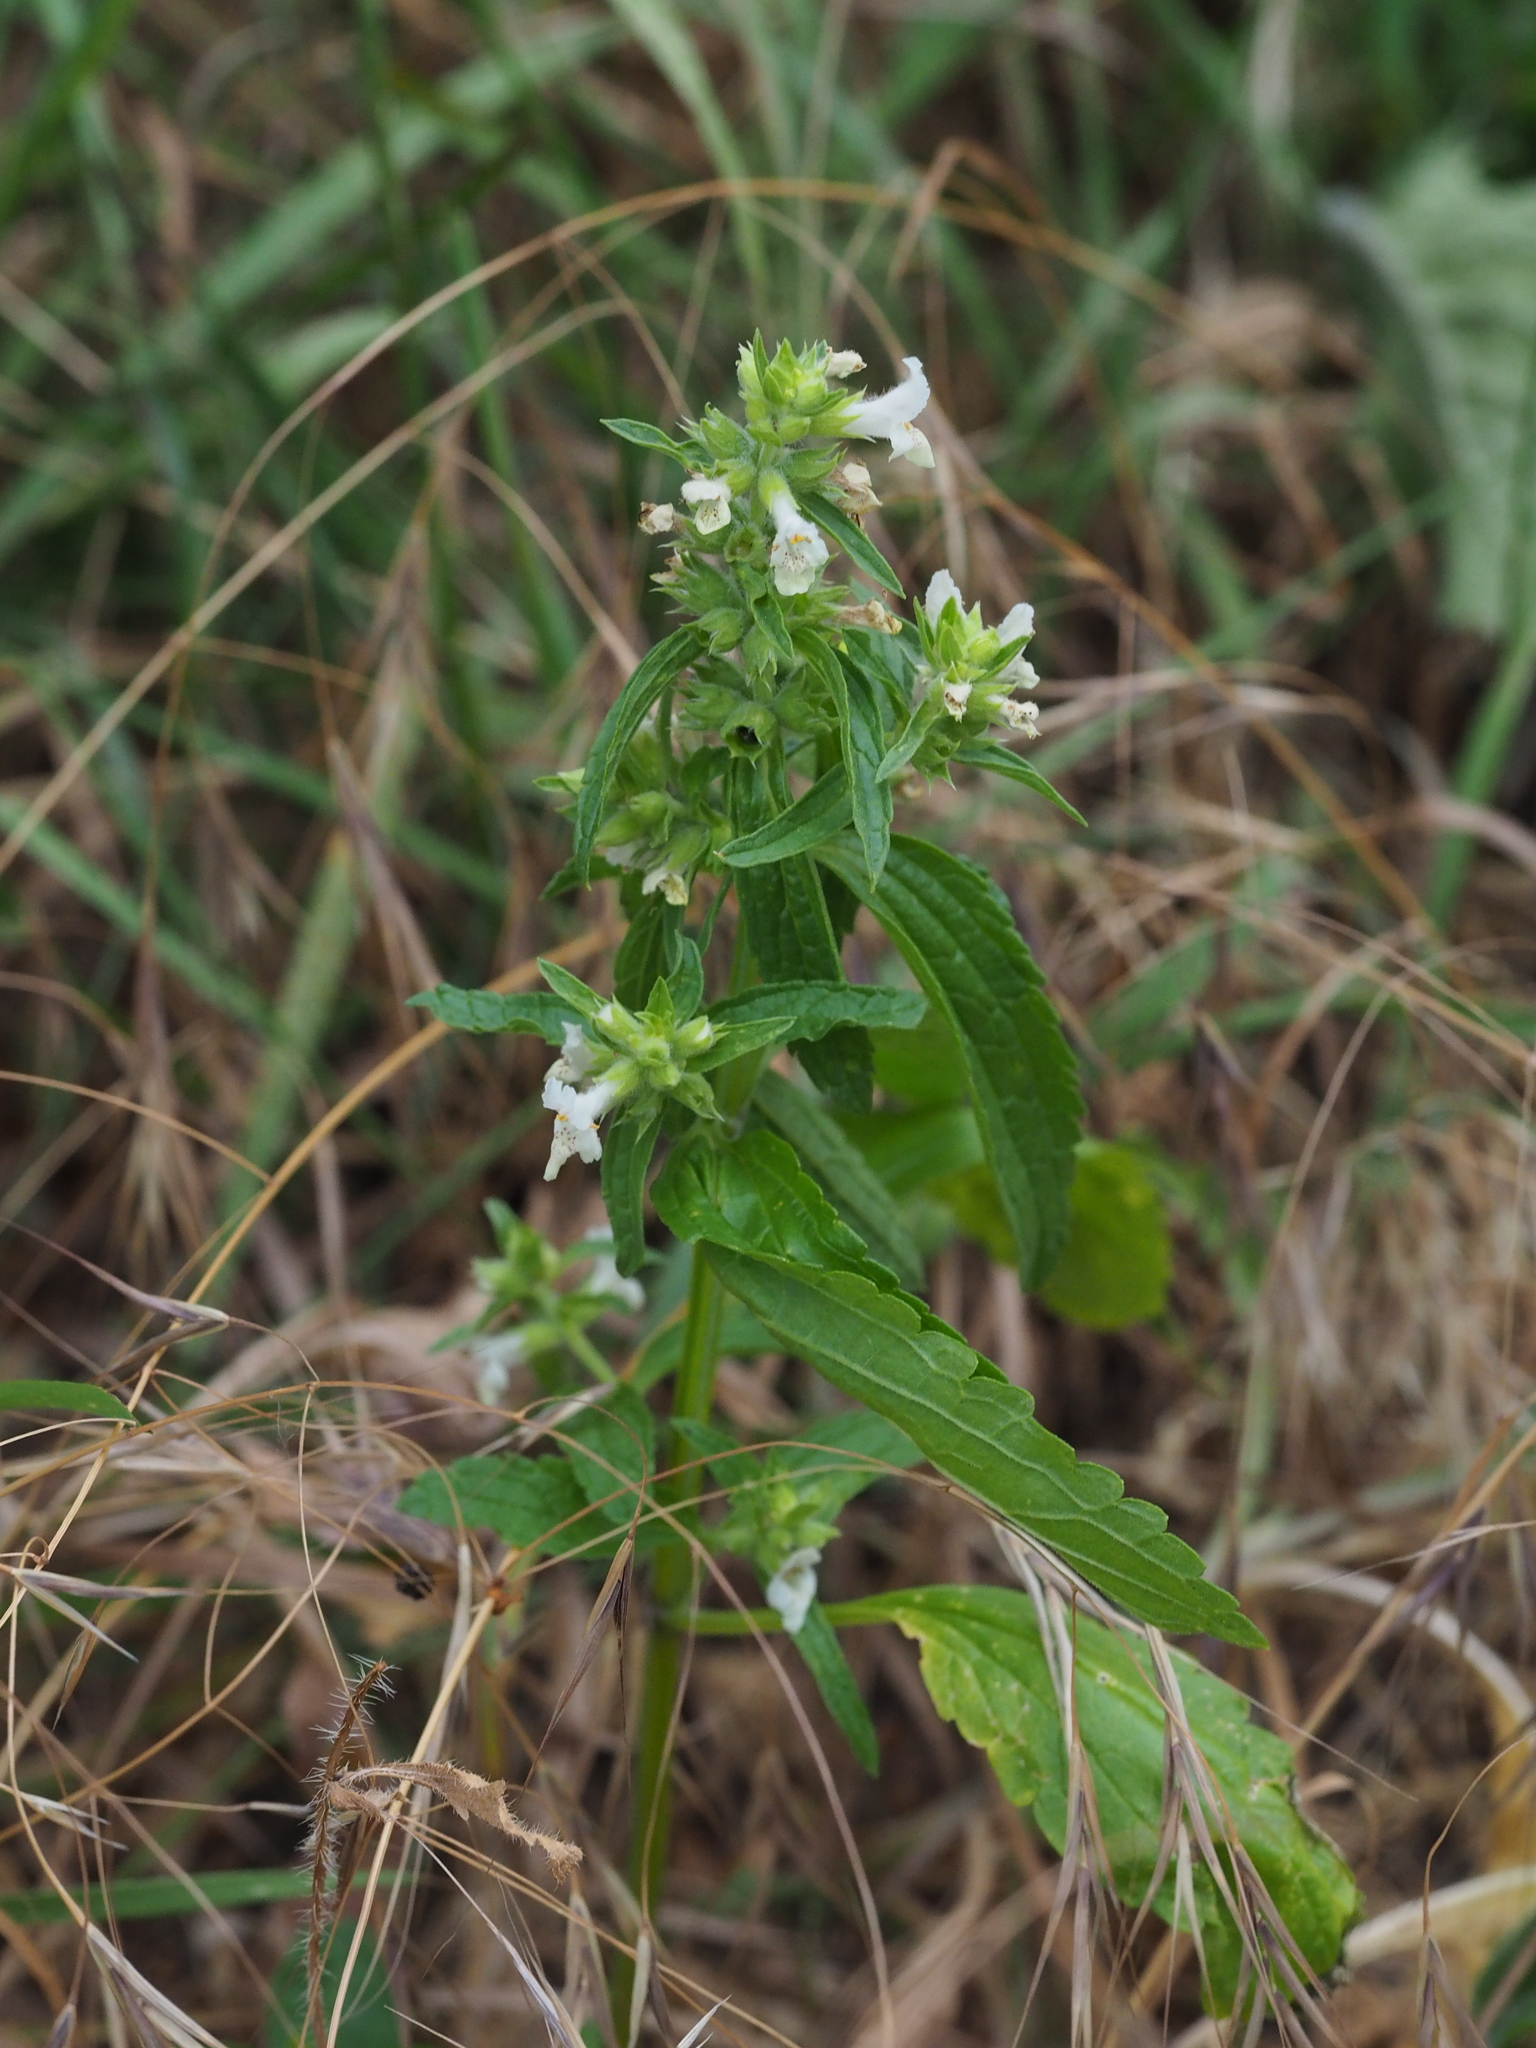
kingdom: Plantae
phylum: Tracheophyta
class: Magnoliopsida
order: Lamiales
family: Lamiaceae
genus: Stachys
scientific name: Stachys annua
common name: Annual yellow-woundwort
